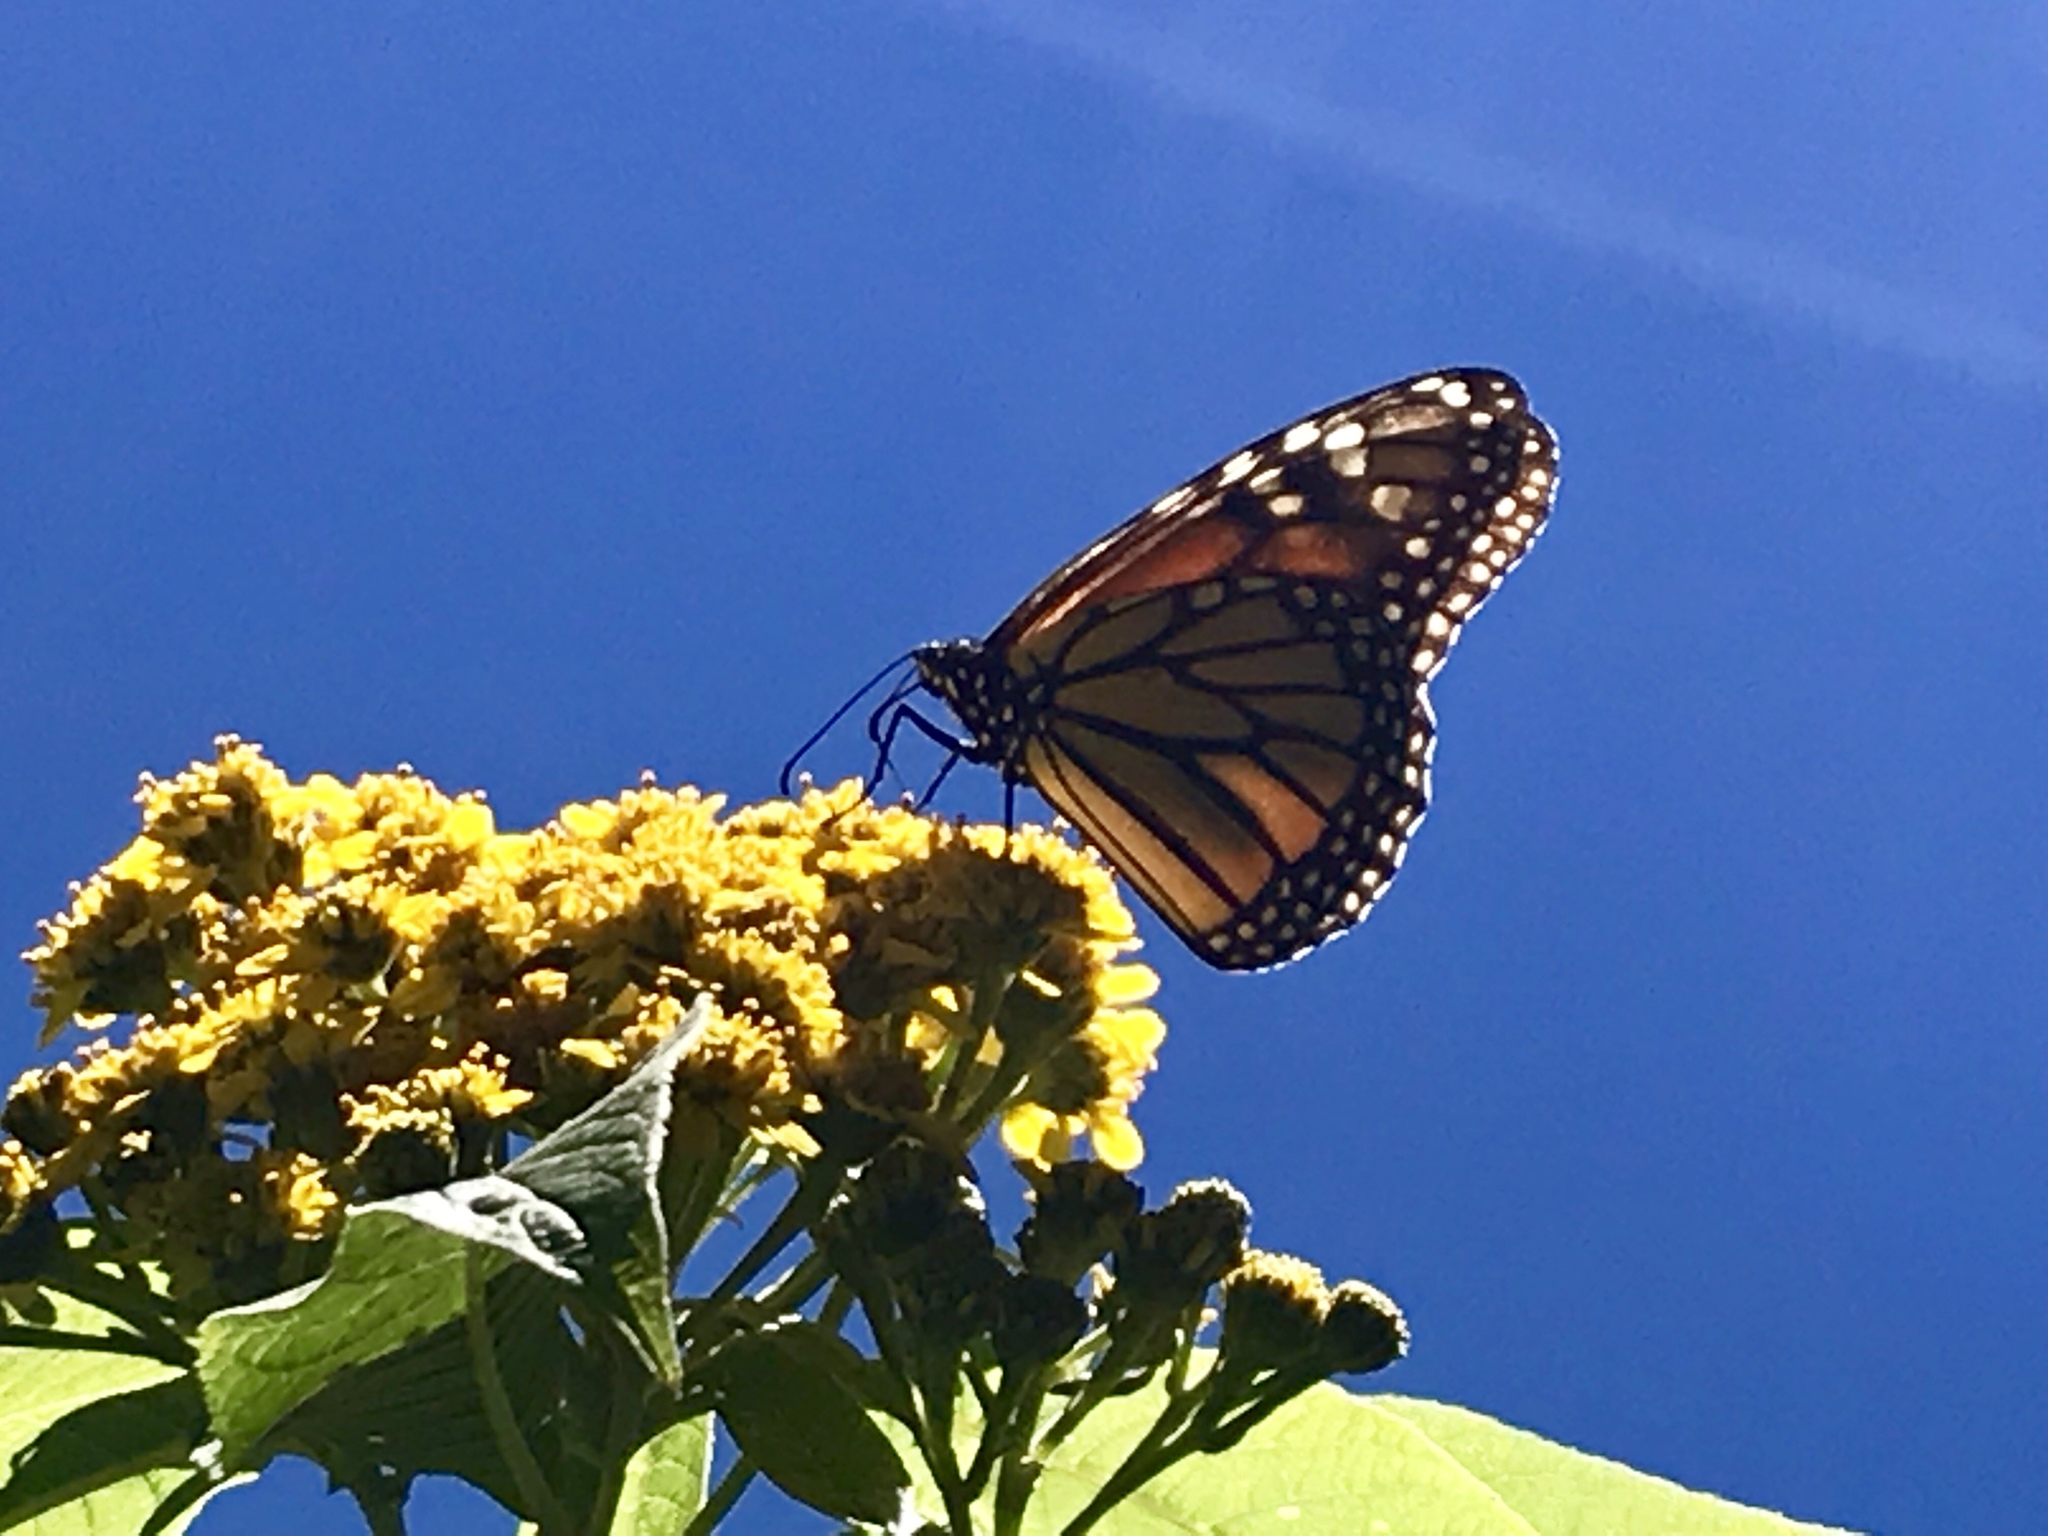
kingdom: Animalia
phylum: Arthropoda
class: Insecta
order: Lepidoptera
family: Nymphalidae
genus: Danaus
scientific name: Danaus plexippus
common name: Monarch
